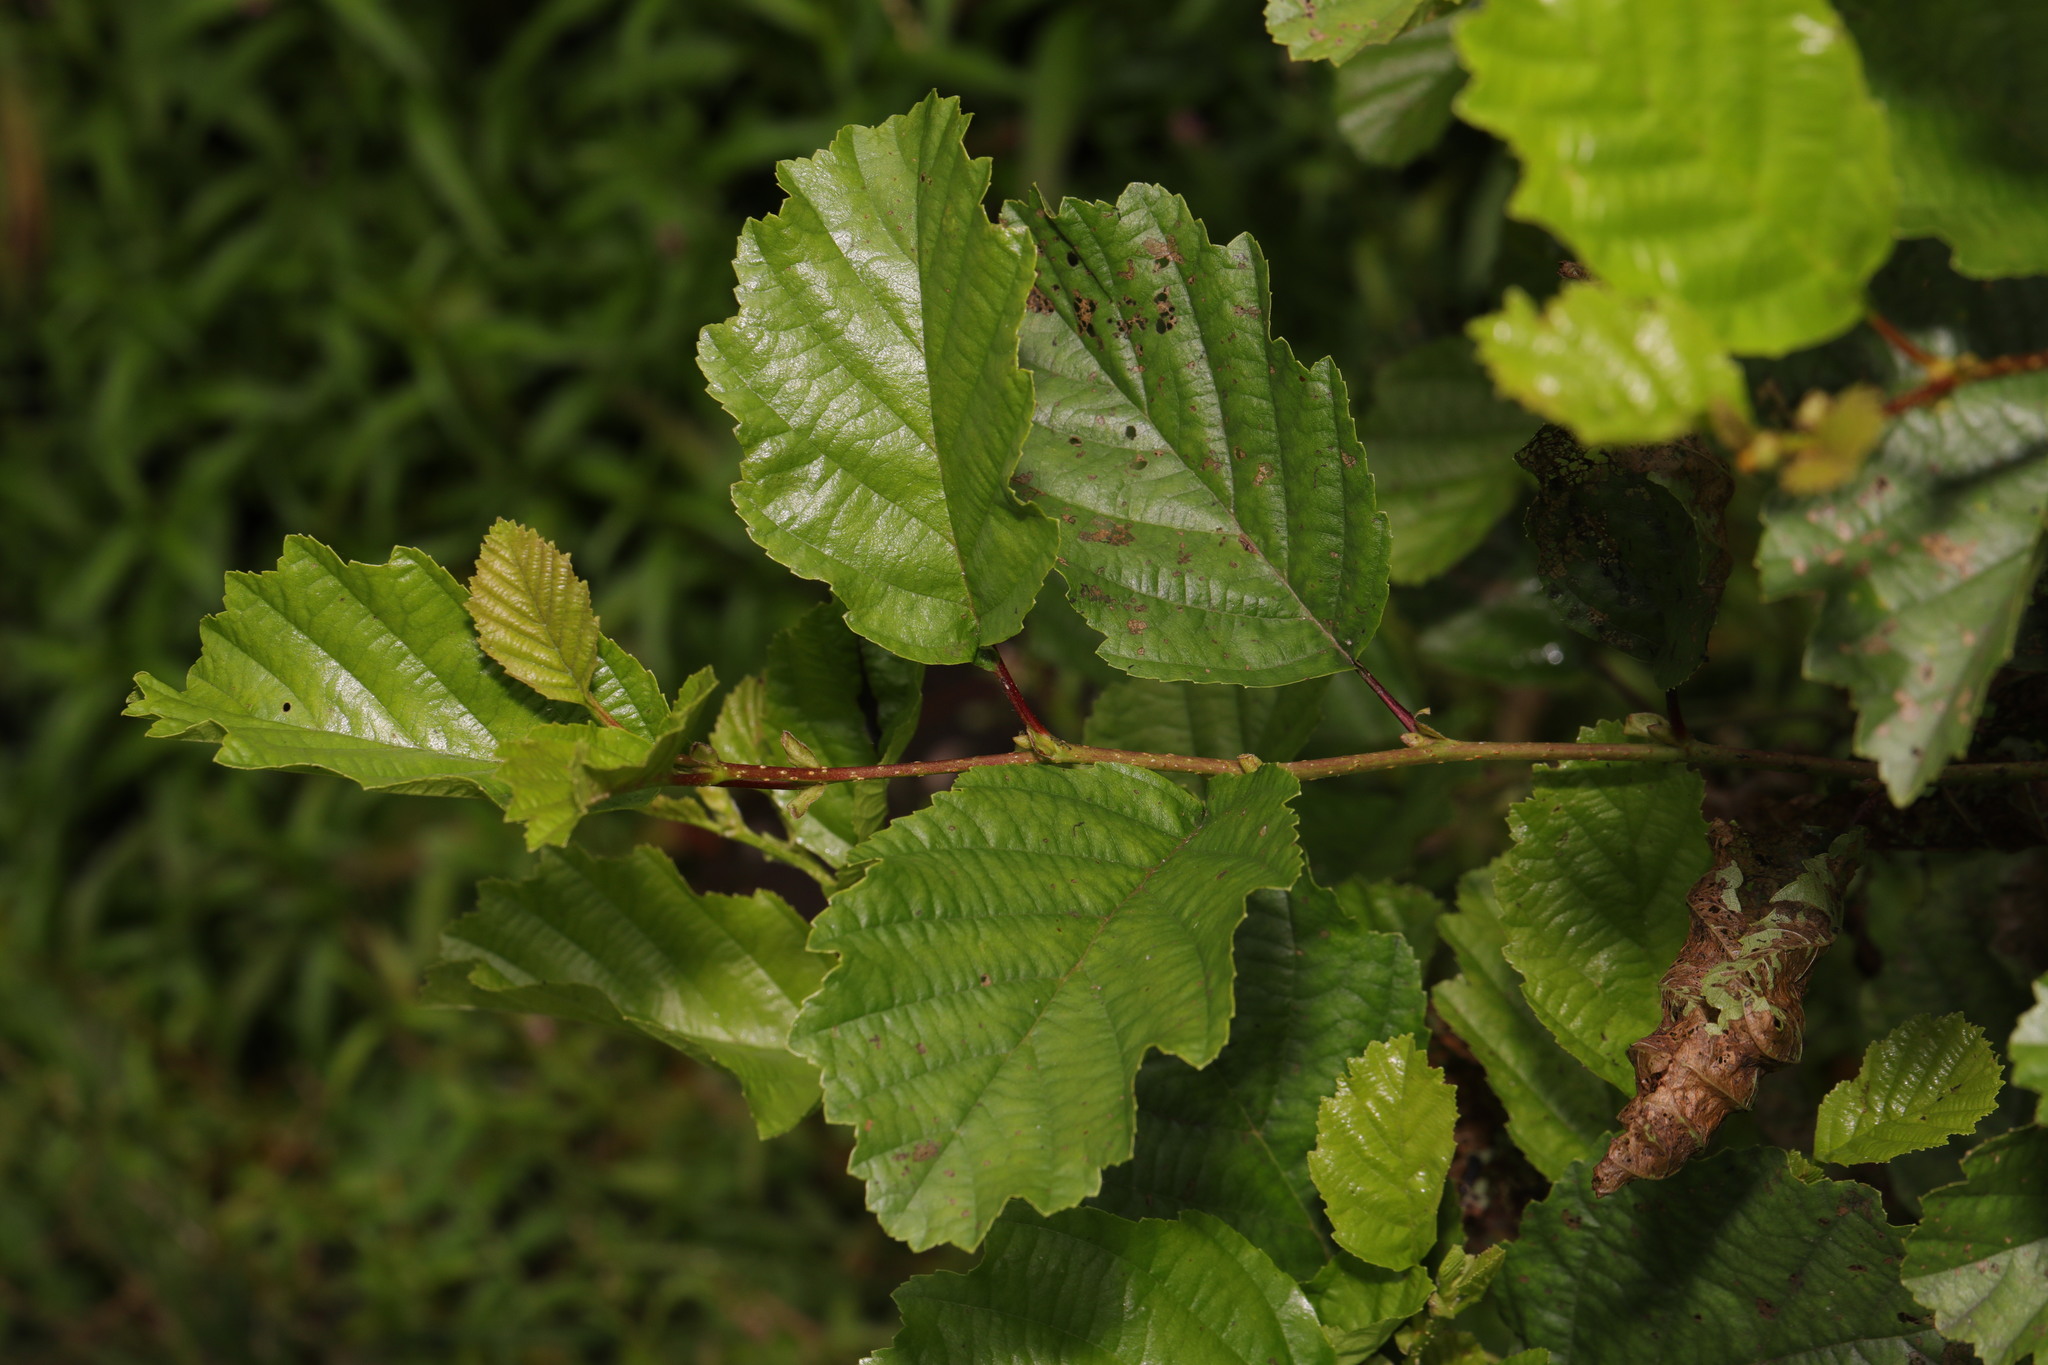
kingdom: Plantae
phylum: Tracheophyta
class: Magnoliopsida
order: Fagales
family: Betulaceae
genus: Alnus
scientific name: Alnus glutinosa
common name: Black alder
